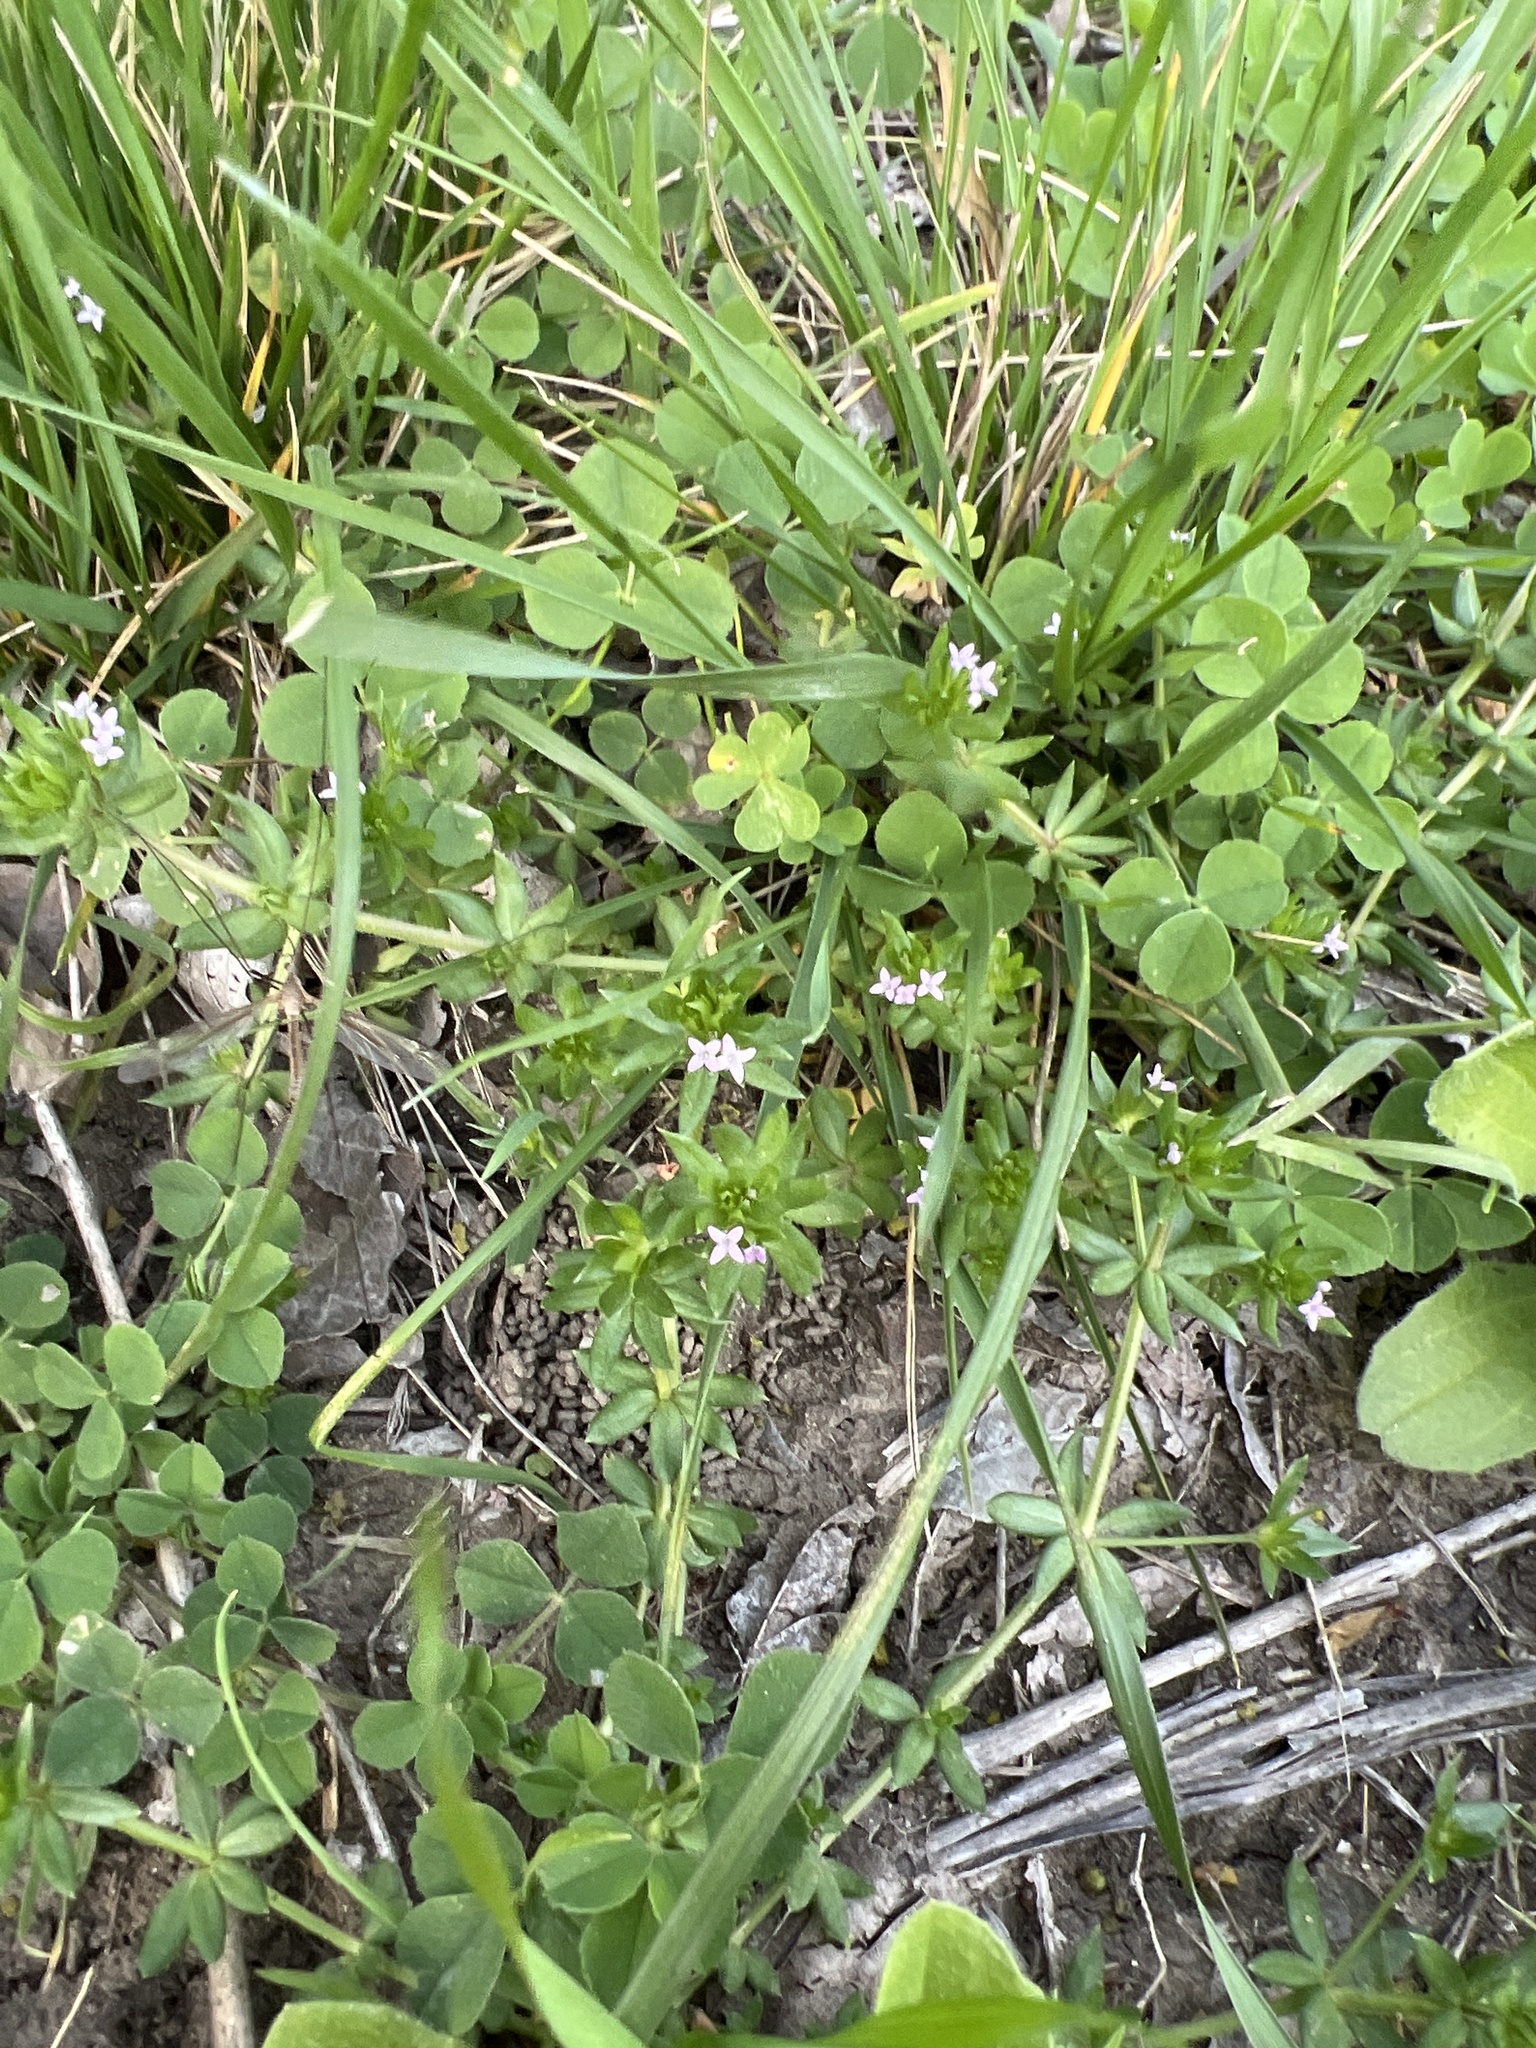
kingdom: Plantae
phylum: Tracheophyta
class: Magnoliopsida
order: Gentianales
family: Rubiaceae
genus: Sherardia
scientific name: Sherardia arvensis
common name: Field madder
